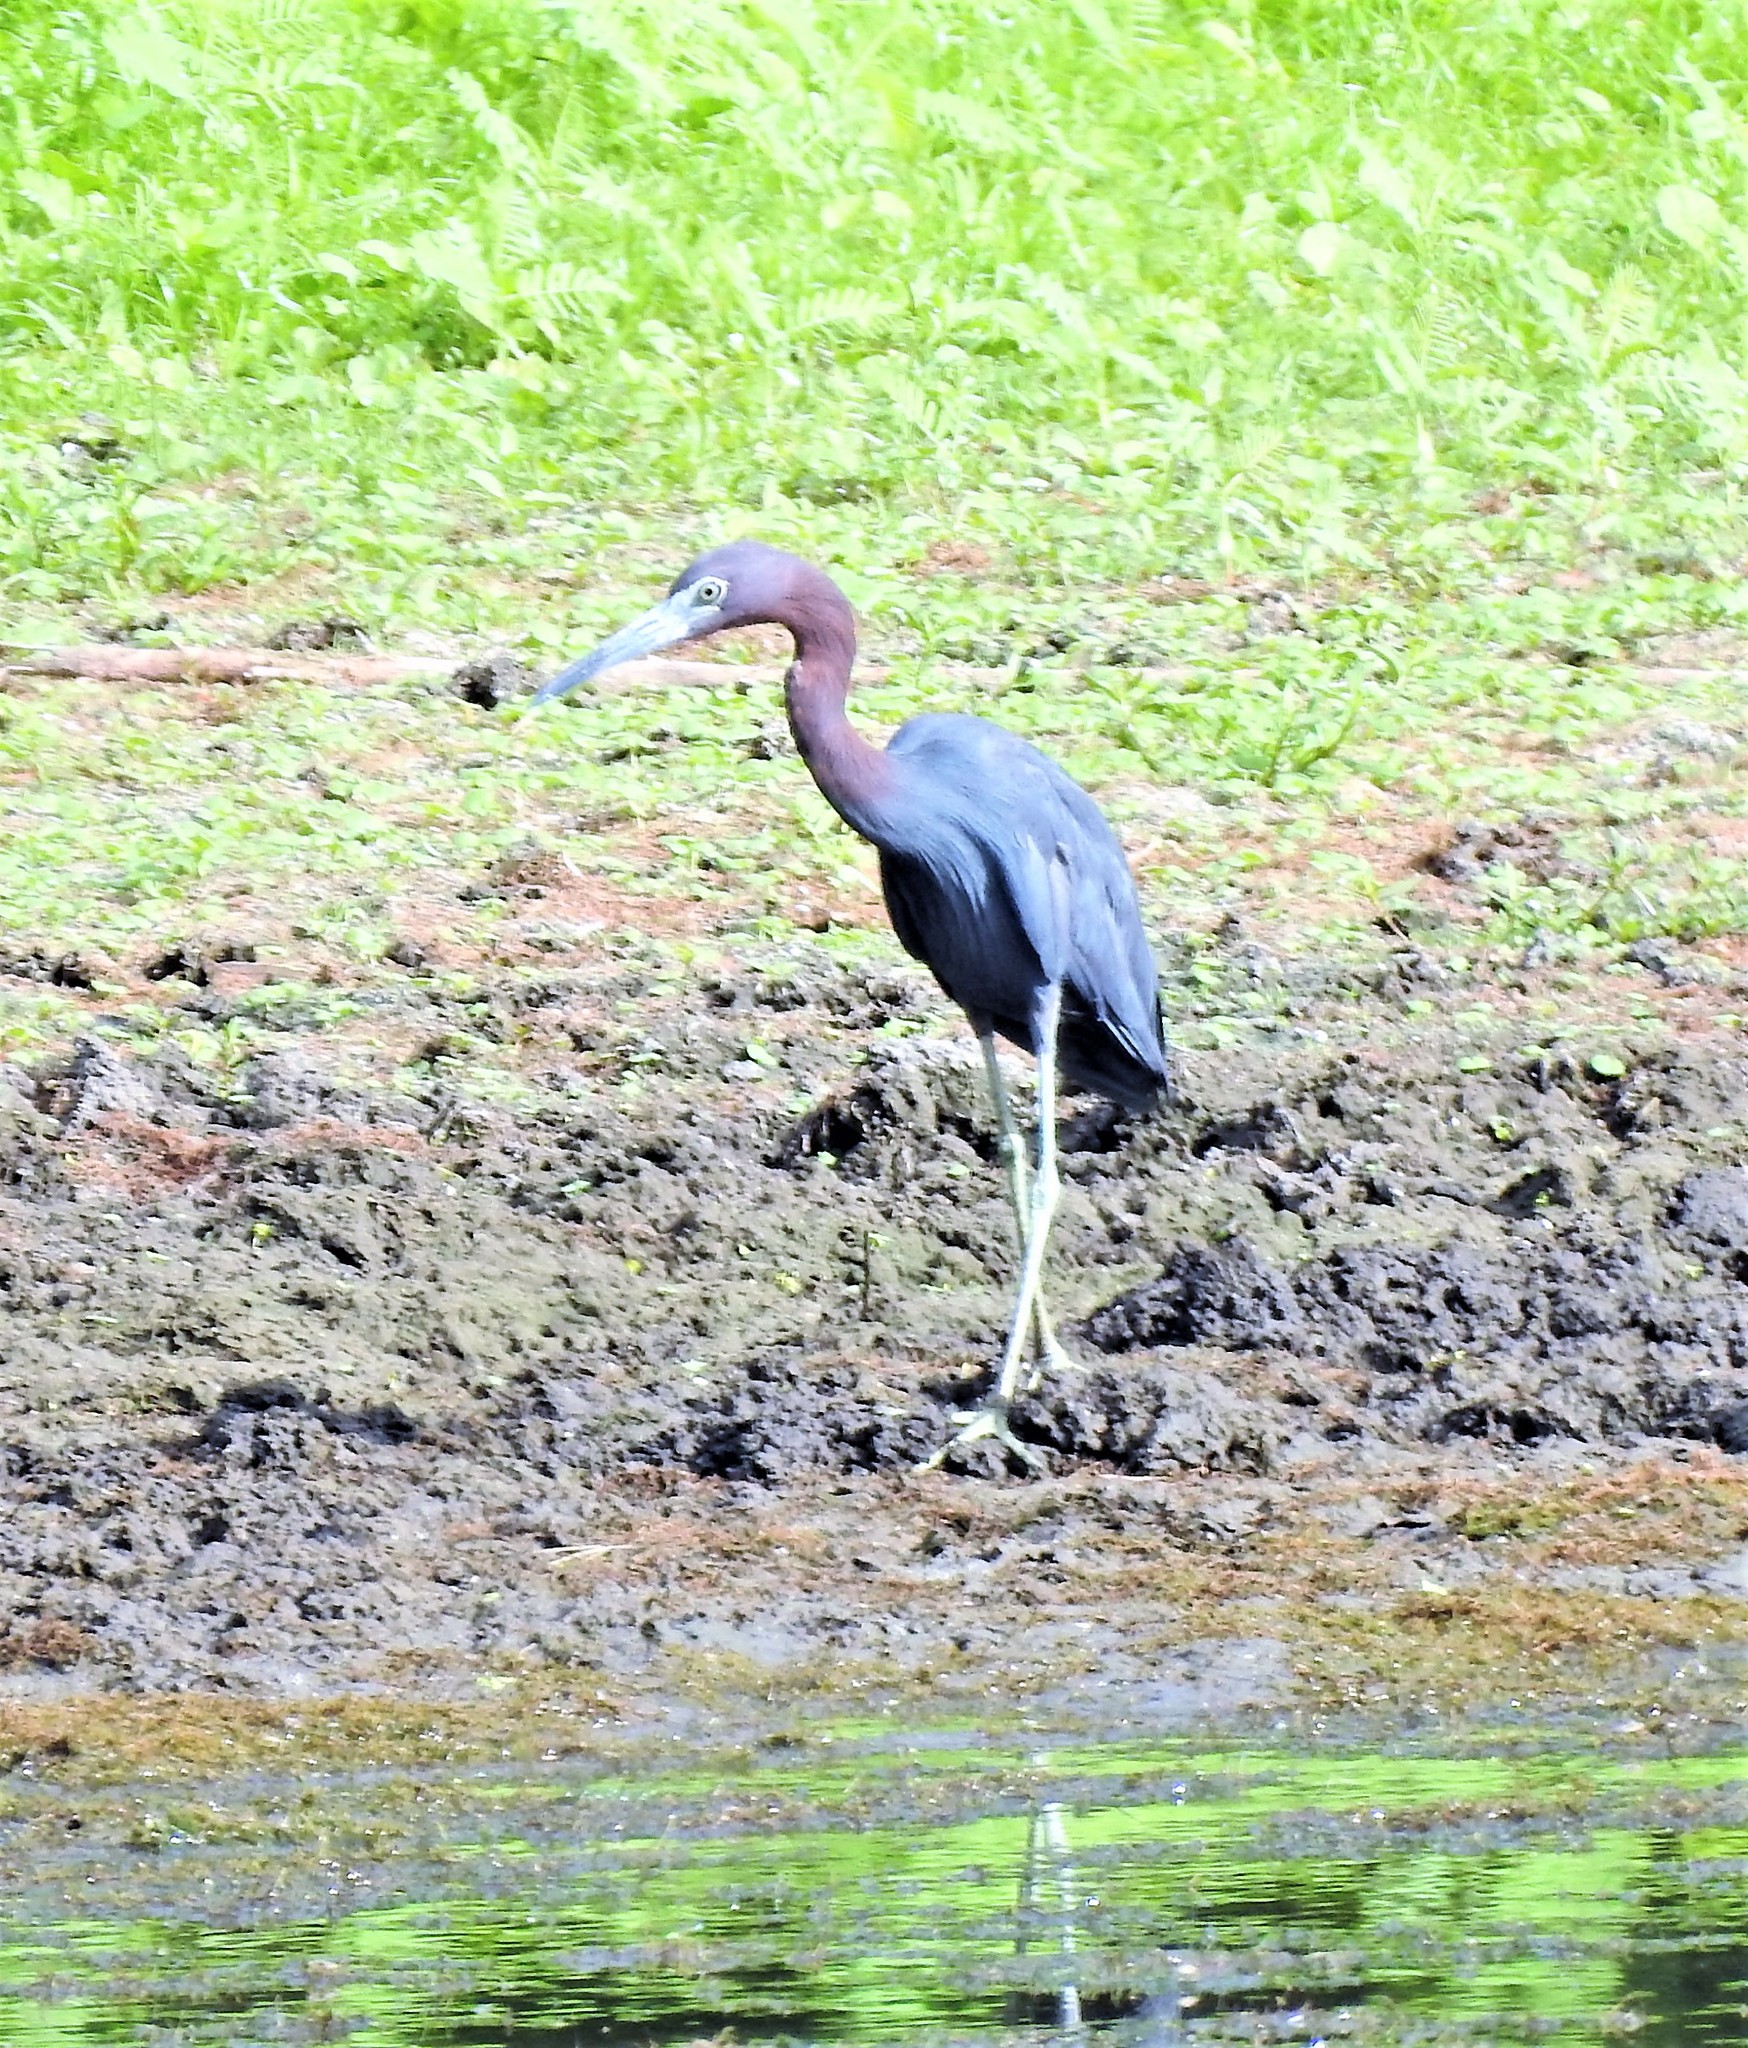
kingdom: Animalia
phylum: Chordata
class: Aves
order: Pelecaniformes
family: Ardeidae
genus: Egretta
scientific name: Egretta caerulea
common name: Little blue heron
